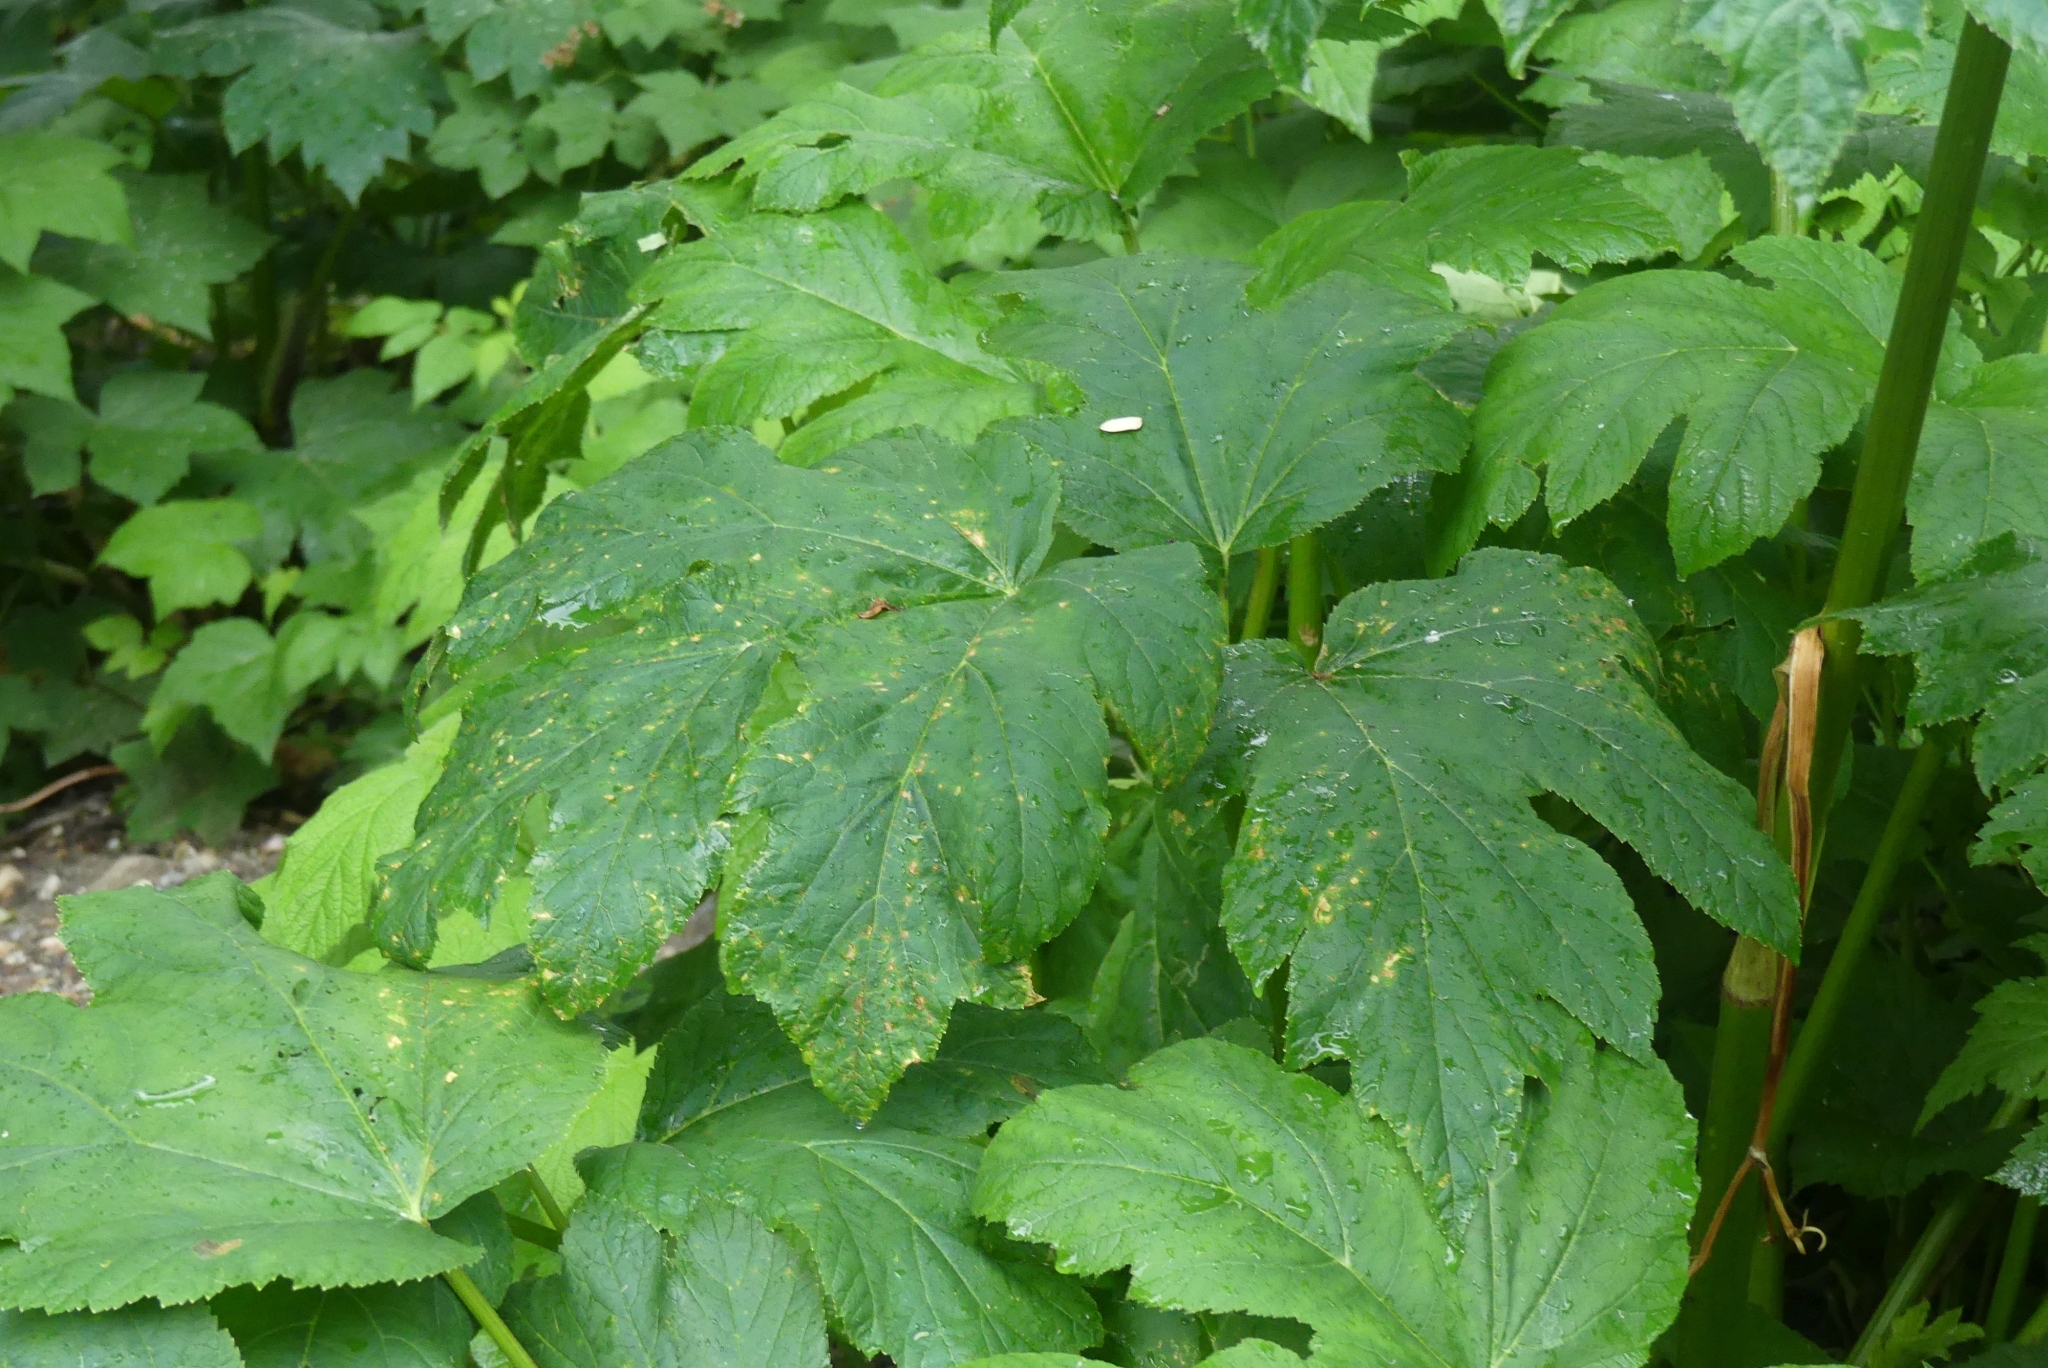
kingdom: Plantae
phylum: Tracheophyta
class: Magnoliopsida
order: Apiales
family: Apiaceae
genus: Heracleum
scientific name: Heracleum maximum
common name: American cow parsnip
